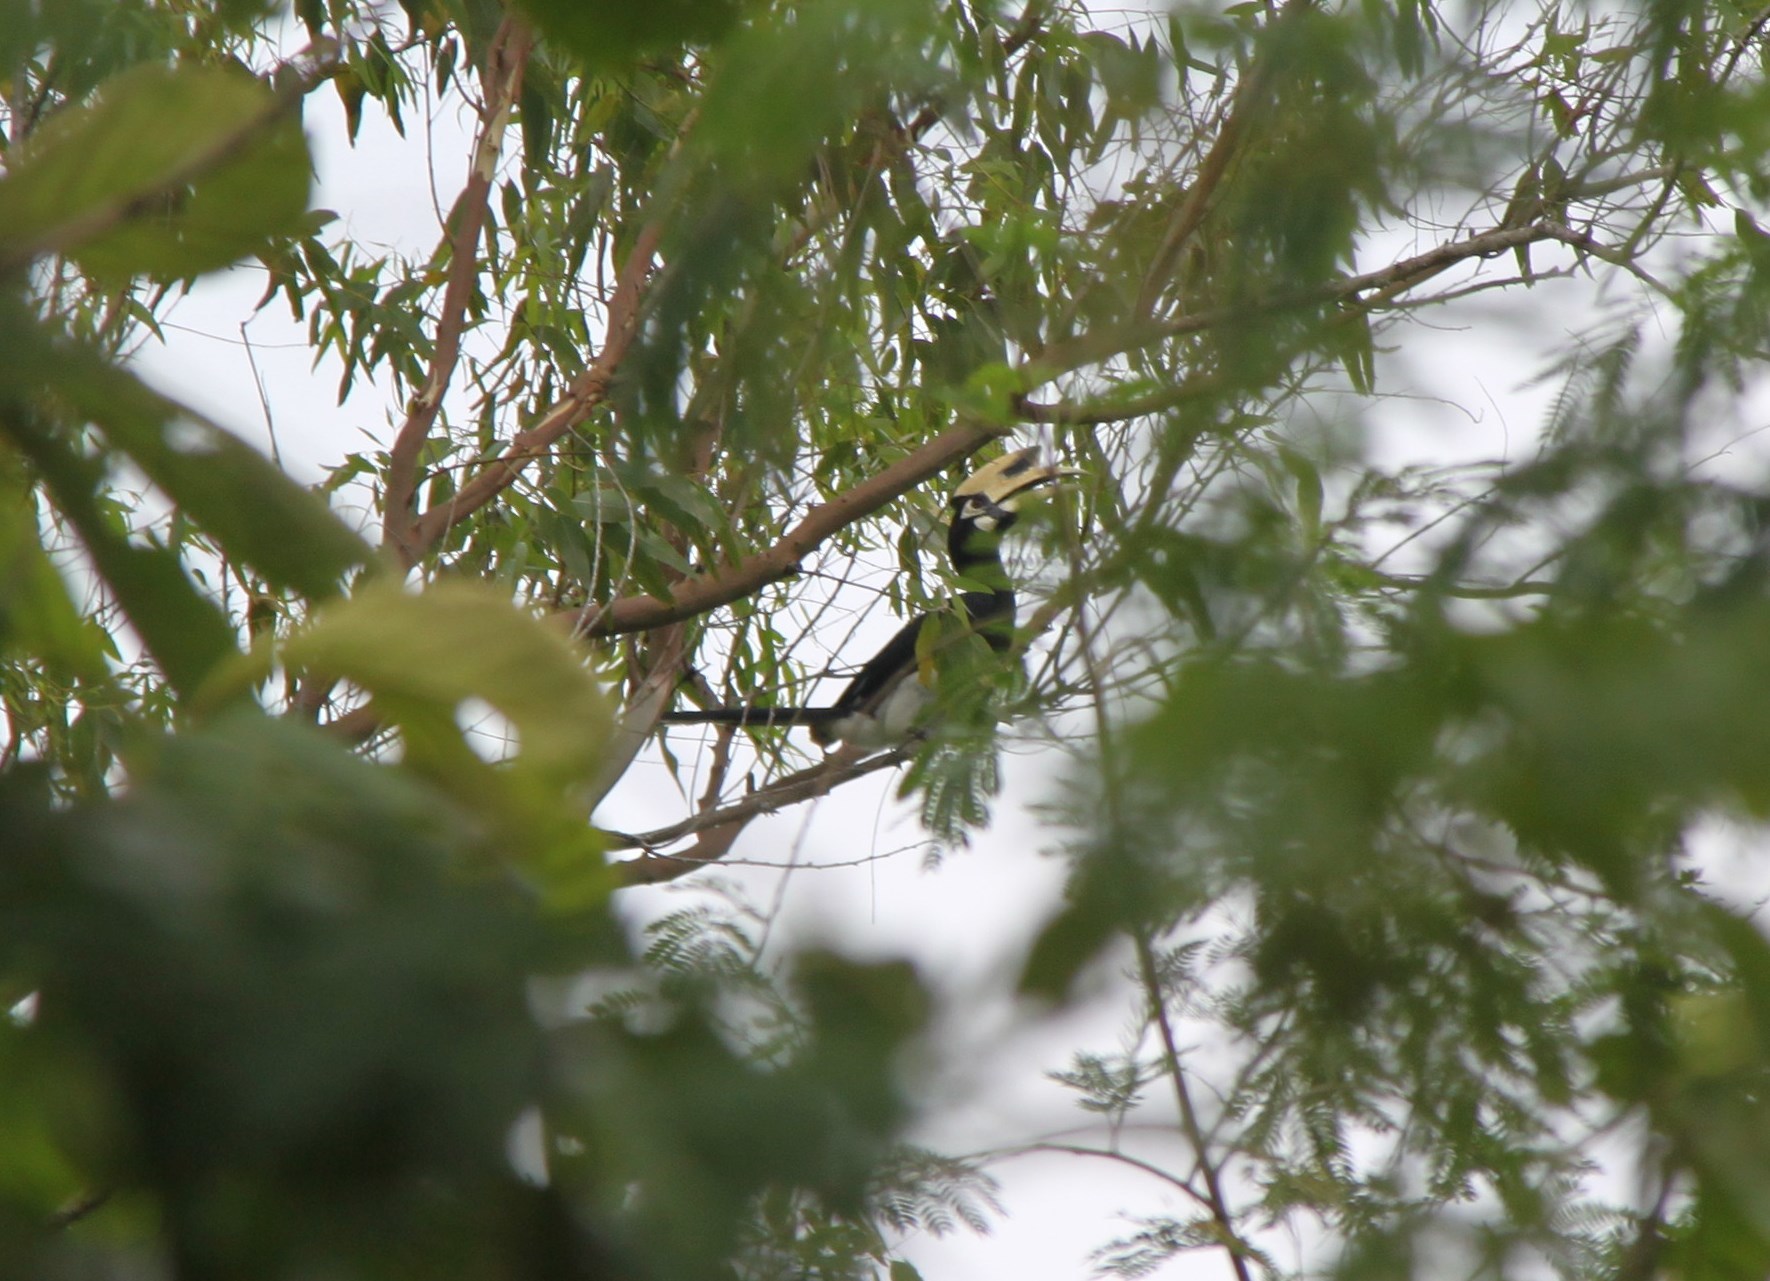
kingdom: Animalia
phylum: Chordata
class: Aves
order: Bucerotiformes
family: Bucerotidae
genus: Anthracoceros
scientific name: Anthracoceros albirostris
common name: Oriental pied-hornbill
